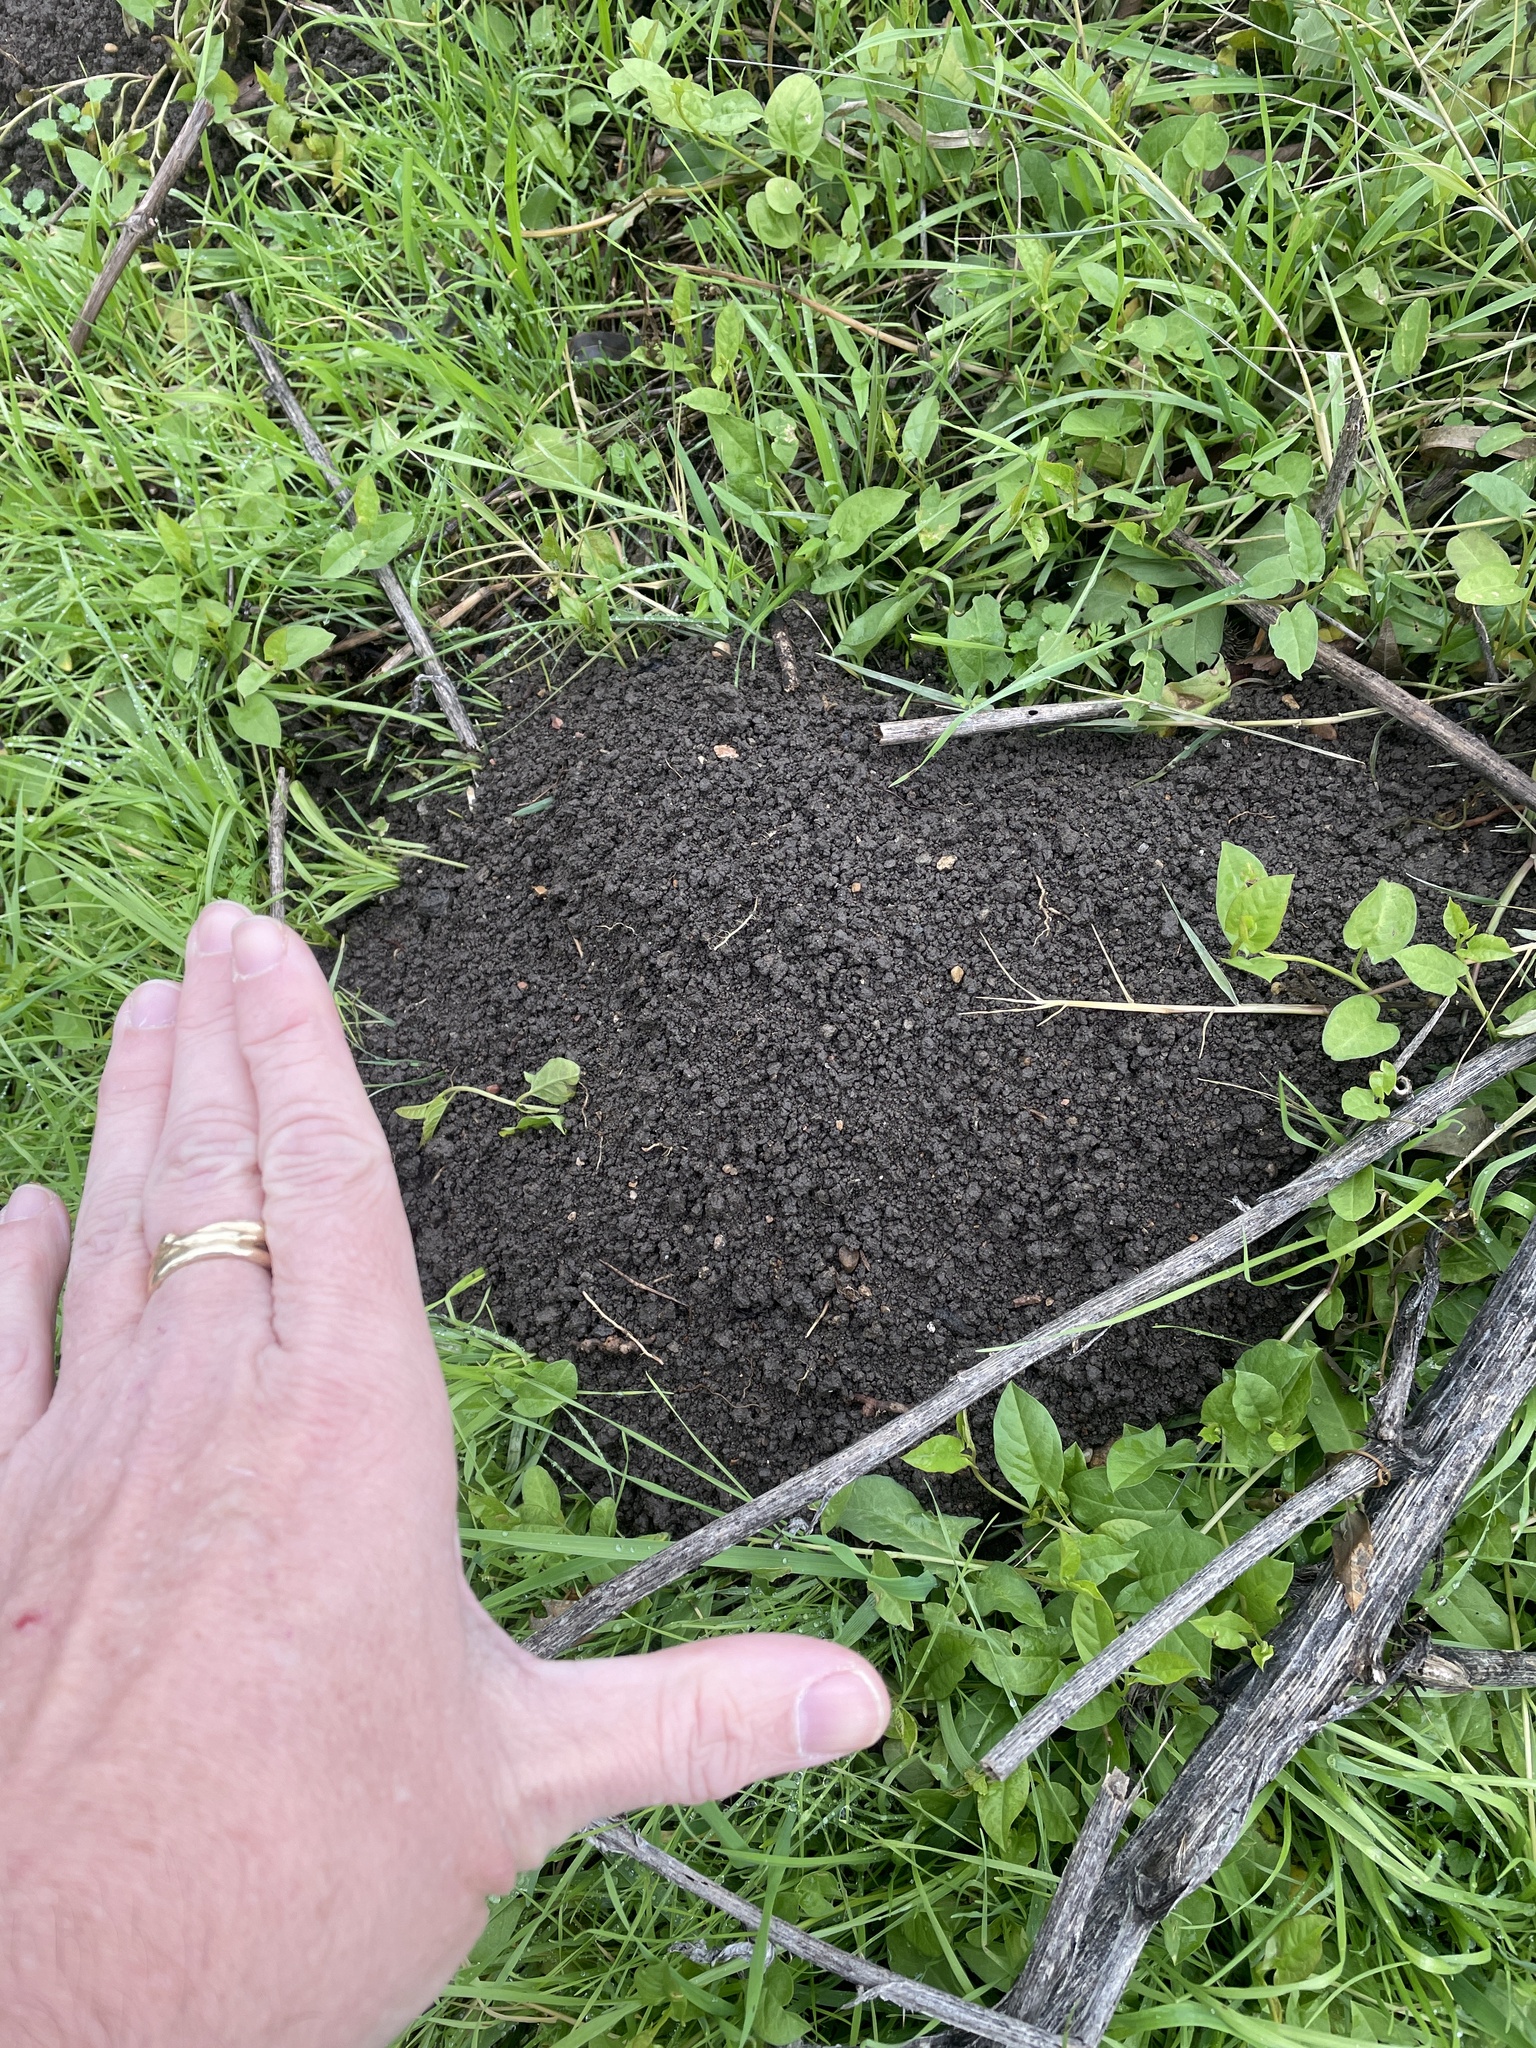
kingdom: Animalia
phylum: Chordata
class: Mammalia
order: Rodentia
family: Geomyidae
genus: Geomys
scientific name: Geomys bursarius
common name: Plains pocket gopher
